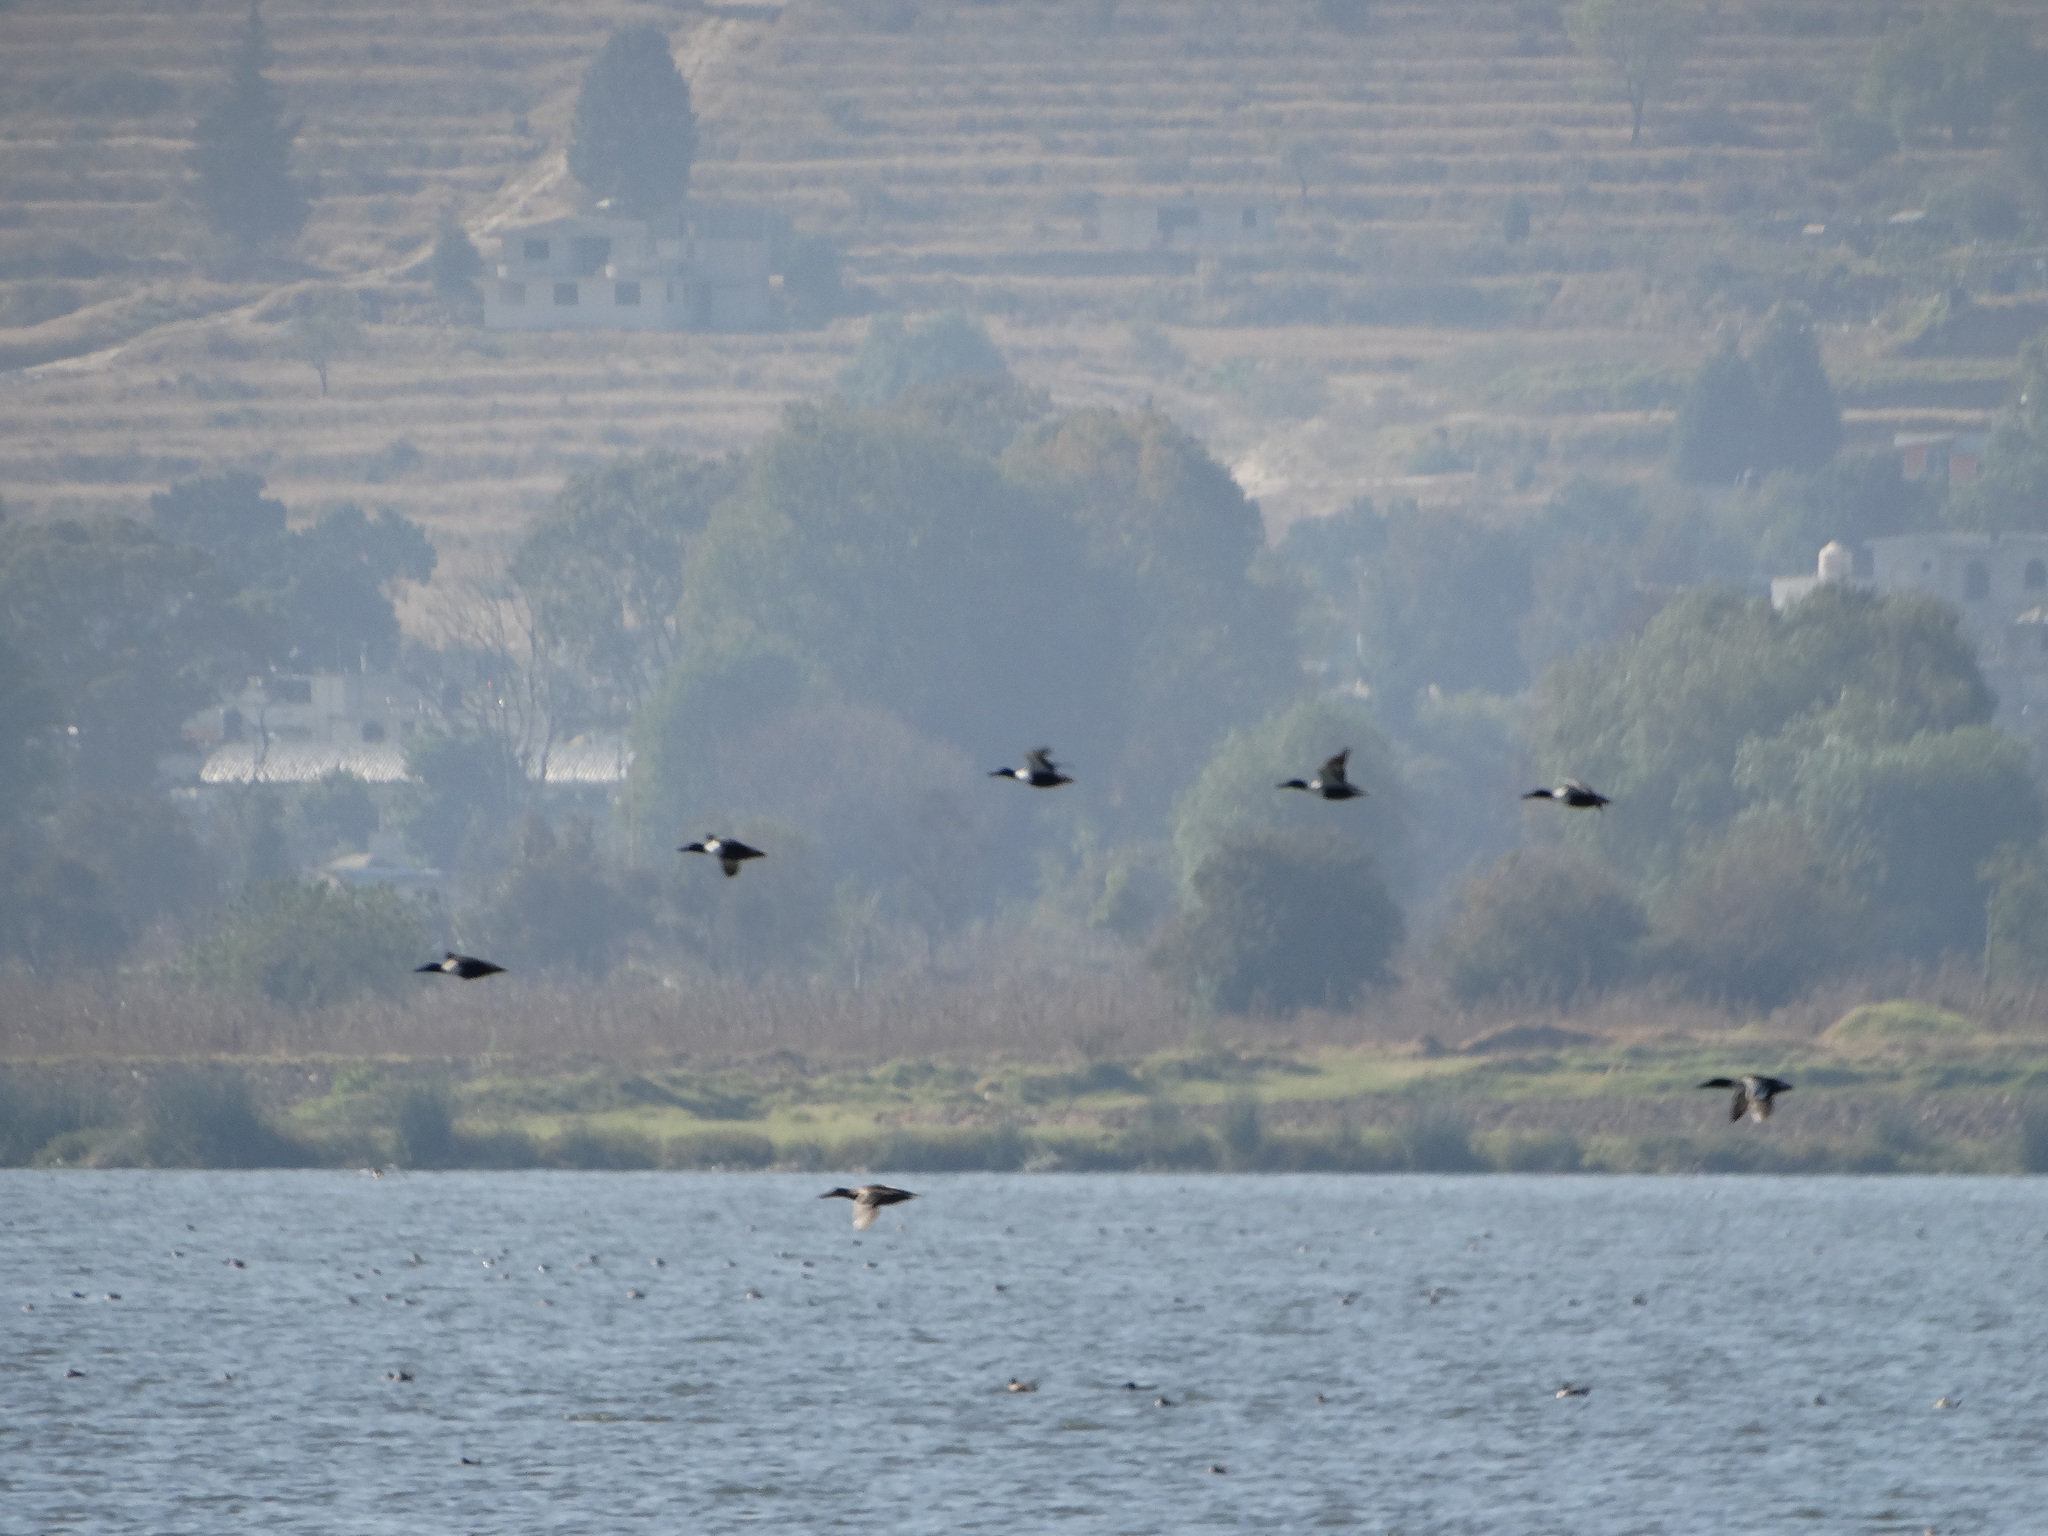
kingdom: Animalia
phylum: Chordata
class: Aves
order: Anseriformes
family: Anatidae
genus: Spatula
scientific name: Spatula clypeata
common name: Northern shoveler
